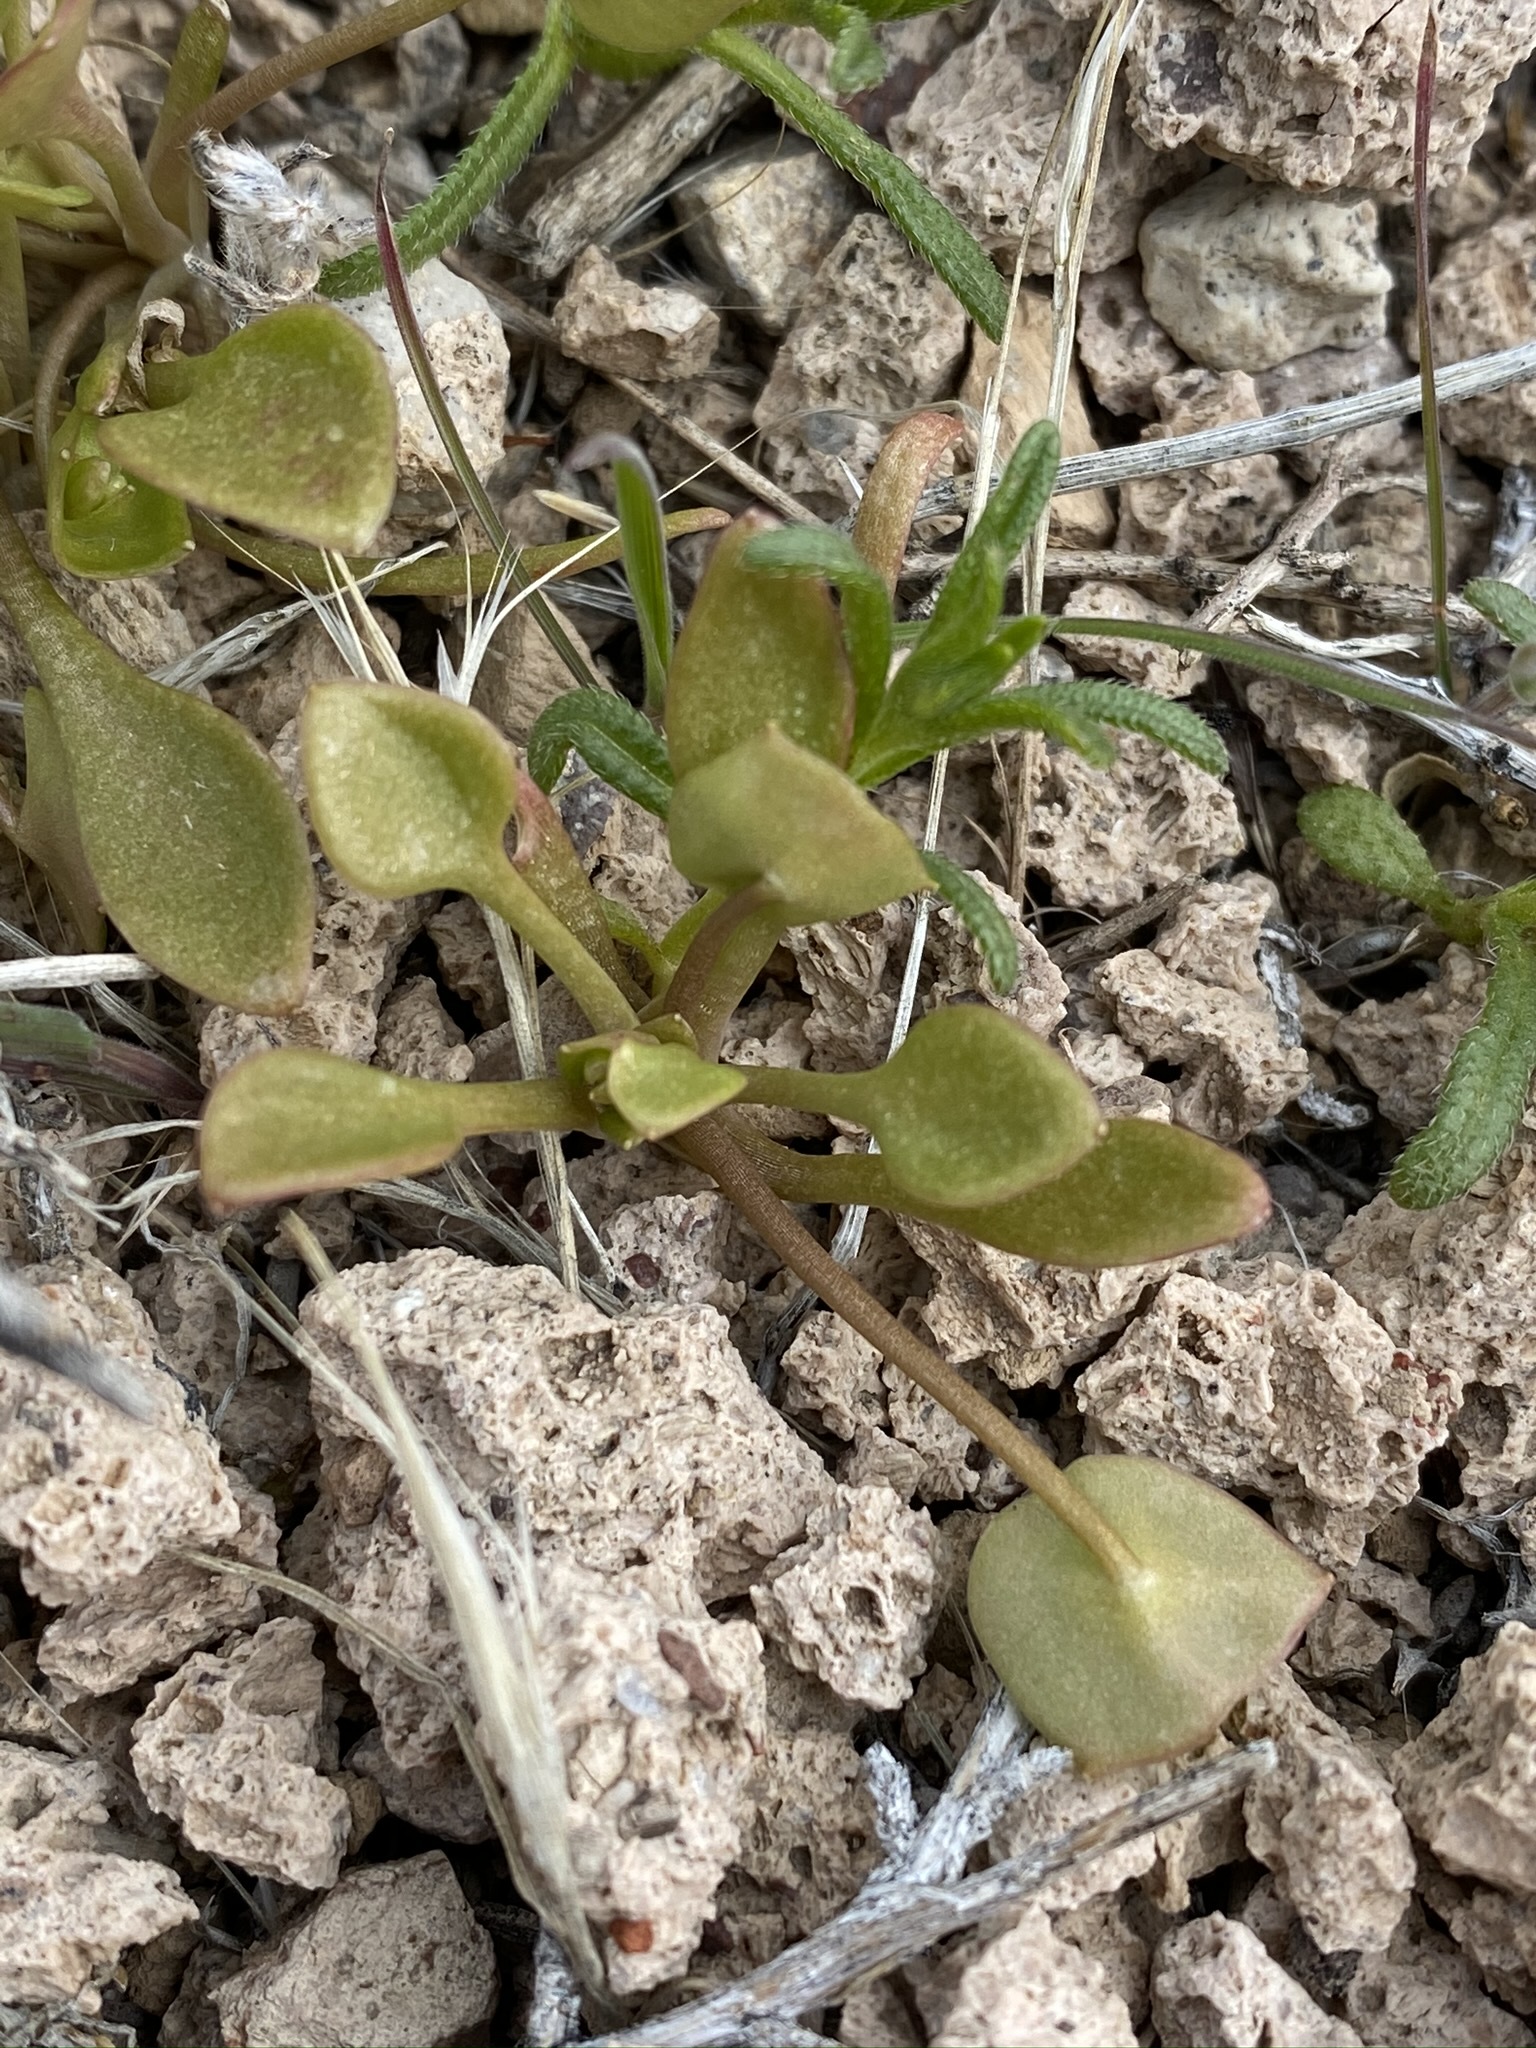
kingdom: Plantae
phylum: Tracheophyta
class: Magnoliopsida
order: Caryophyllales
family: Montiaceae
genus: Claytonia
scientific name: Claytonia perfoliata
